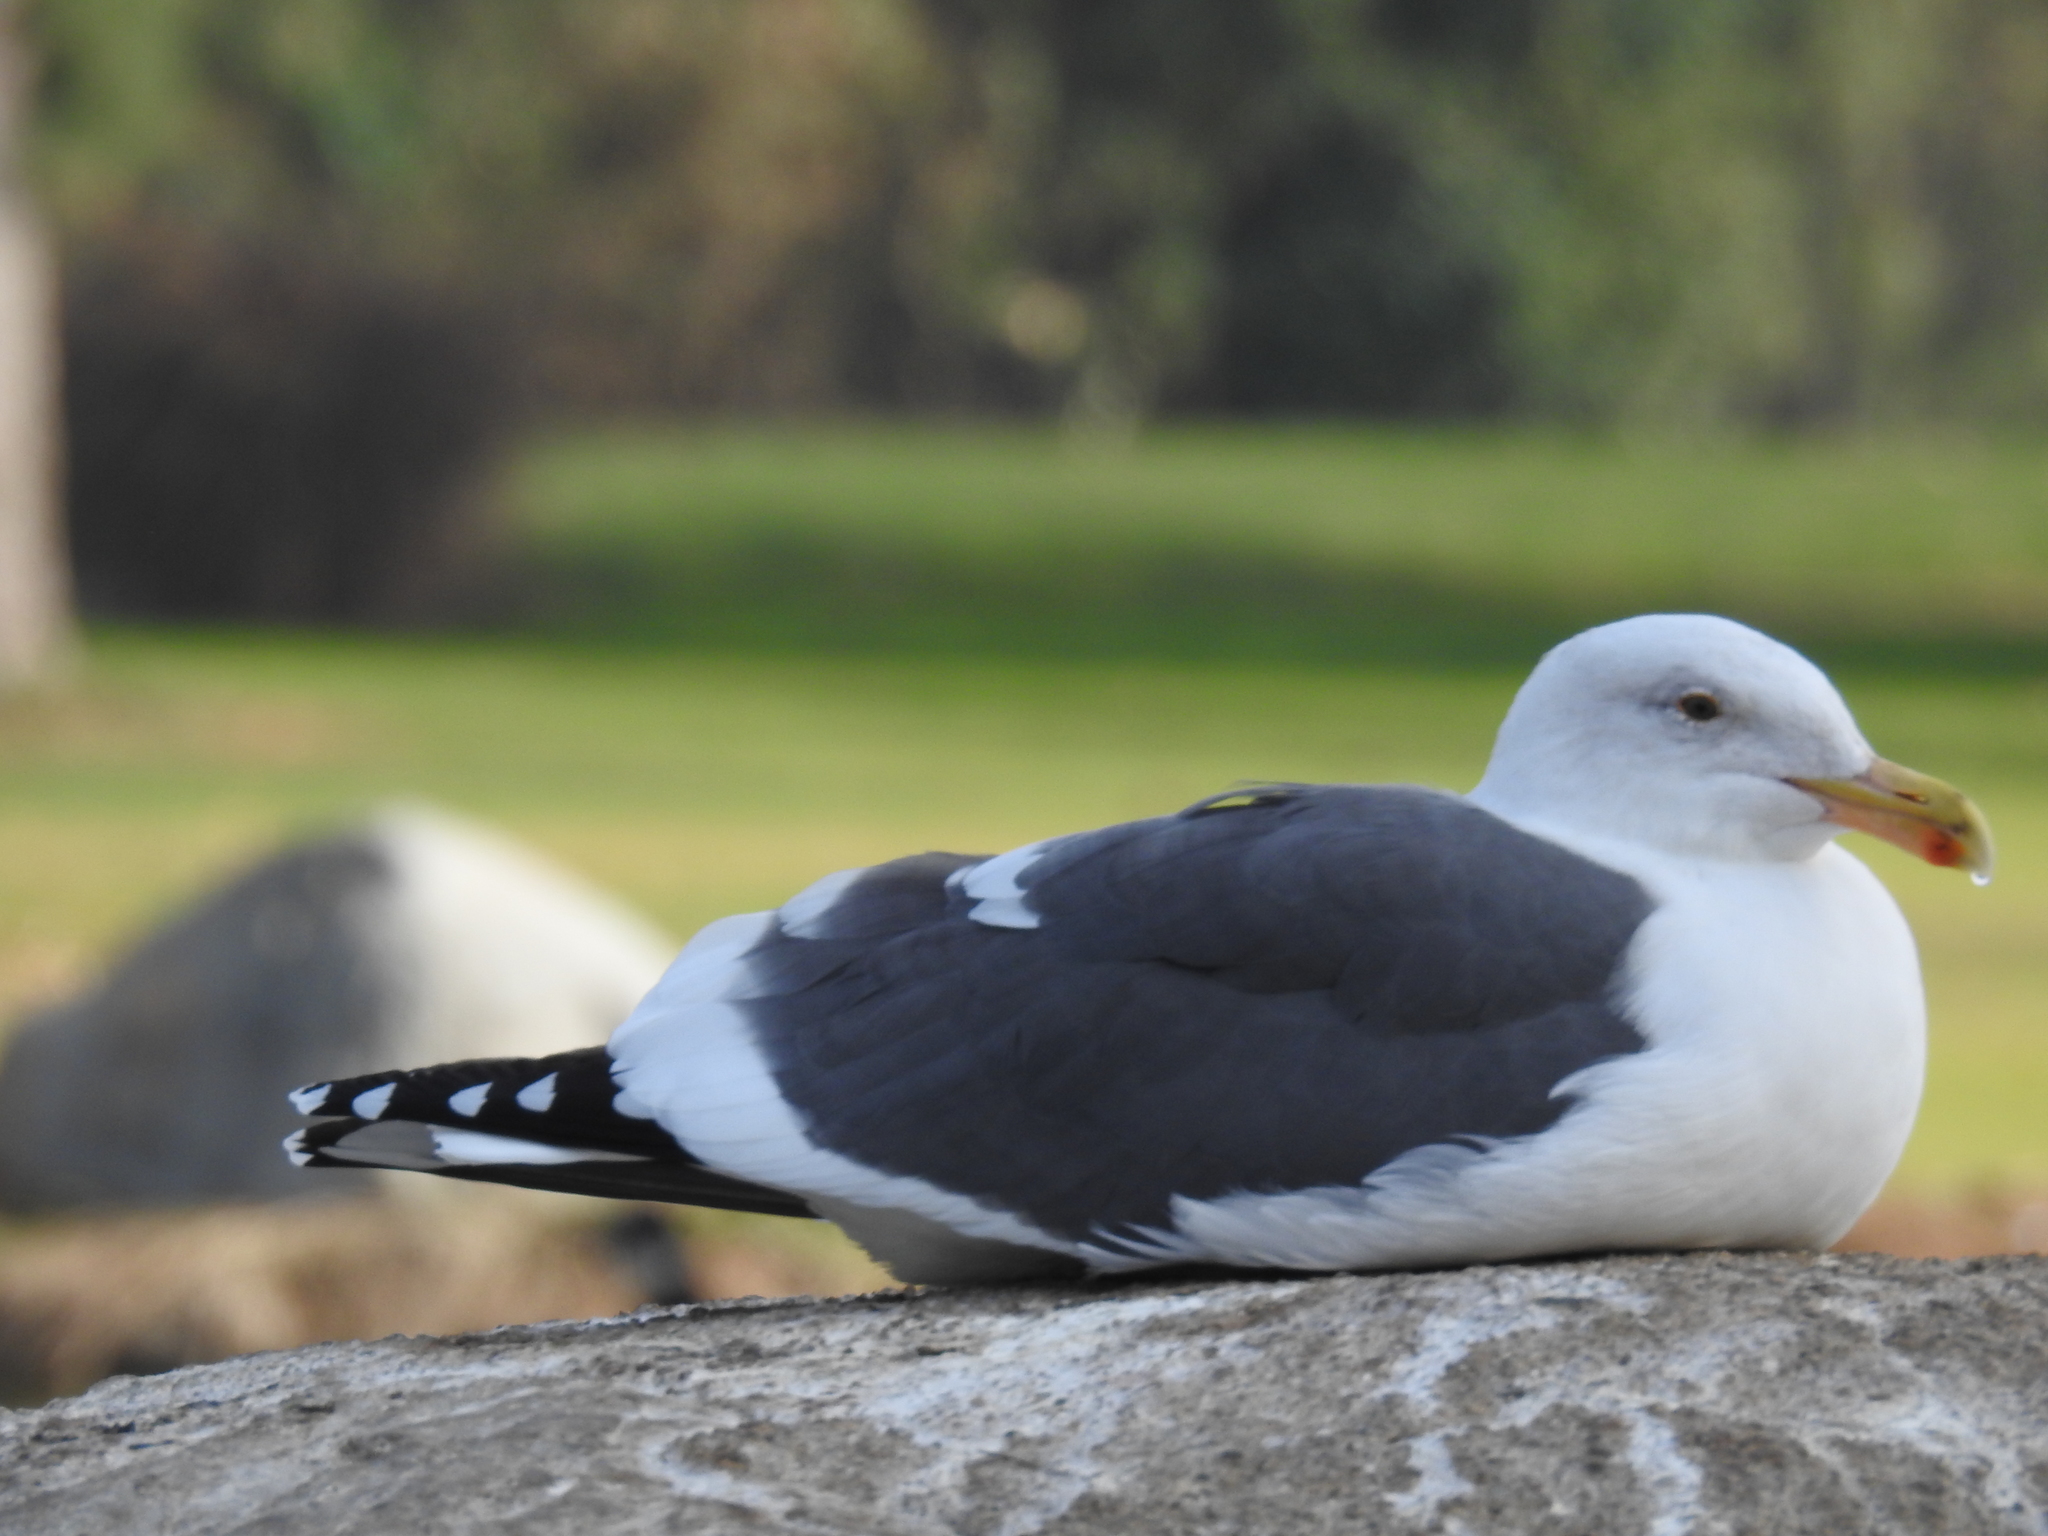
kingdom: Animalia
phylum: Chordata
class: Aves
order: Charadriiformes
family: Laridae
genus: Larus
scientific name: Larus occidentalis
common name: Western gull
